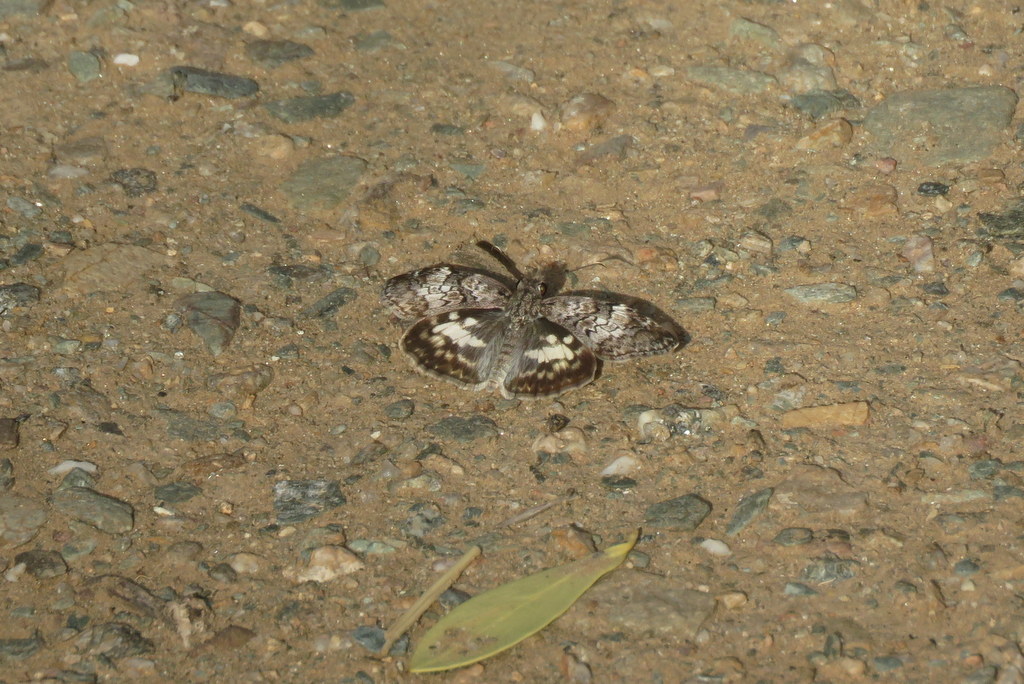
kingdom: Animalia
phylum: Arthropoda
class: Insecta
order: Lepidoptera
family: Hesperiidae
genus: Chiomara
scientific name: Chiomara asychis
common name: White-patterned skipper
